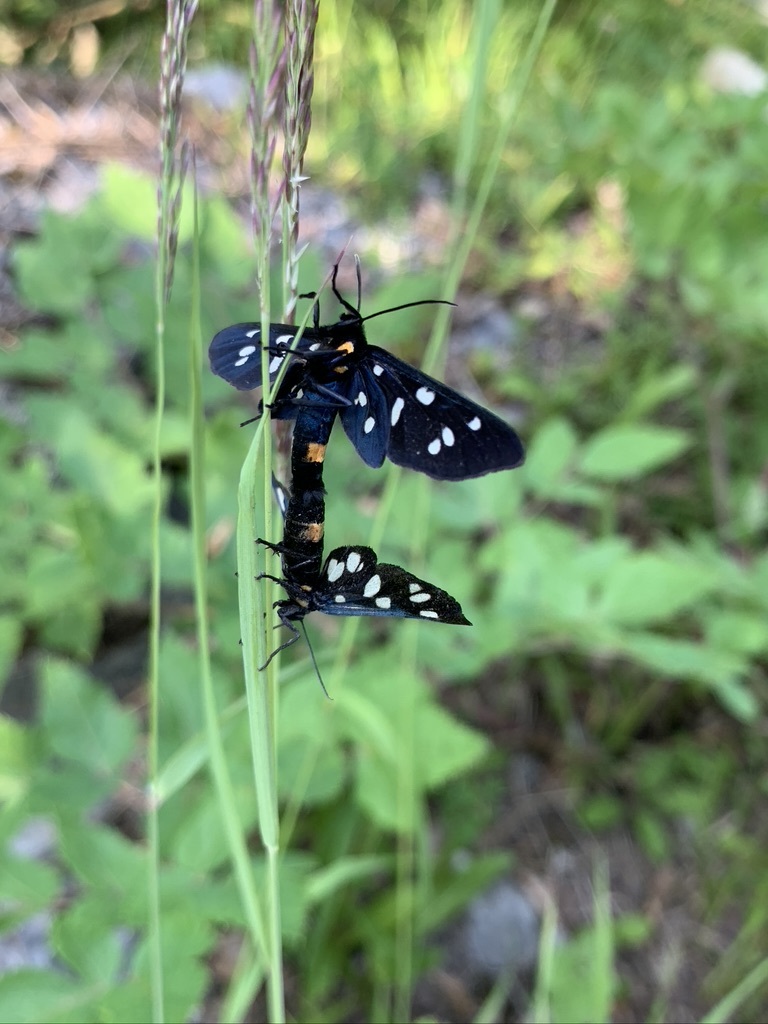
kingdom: Animalia
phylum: Arthropoda
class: Insecta
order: Lepidoptera
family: Erebidae
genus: Amata
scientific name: Amata phegea
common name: Nine-spotted
